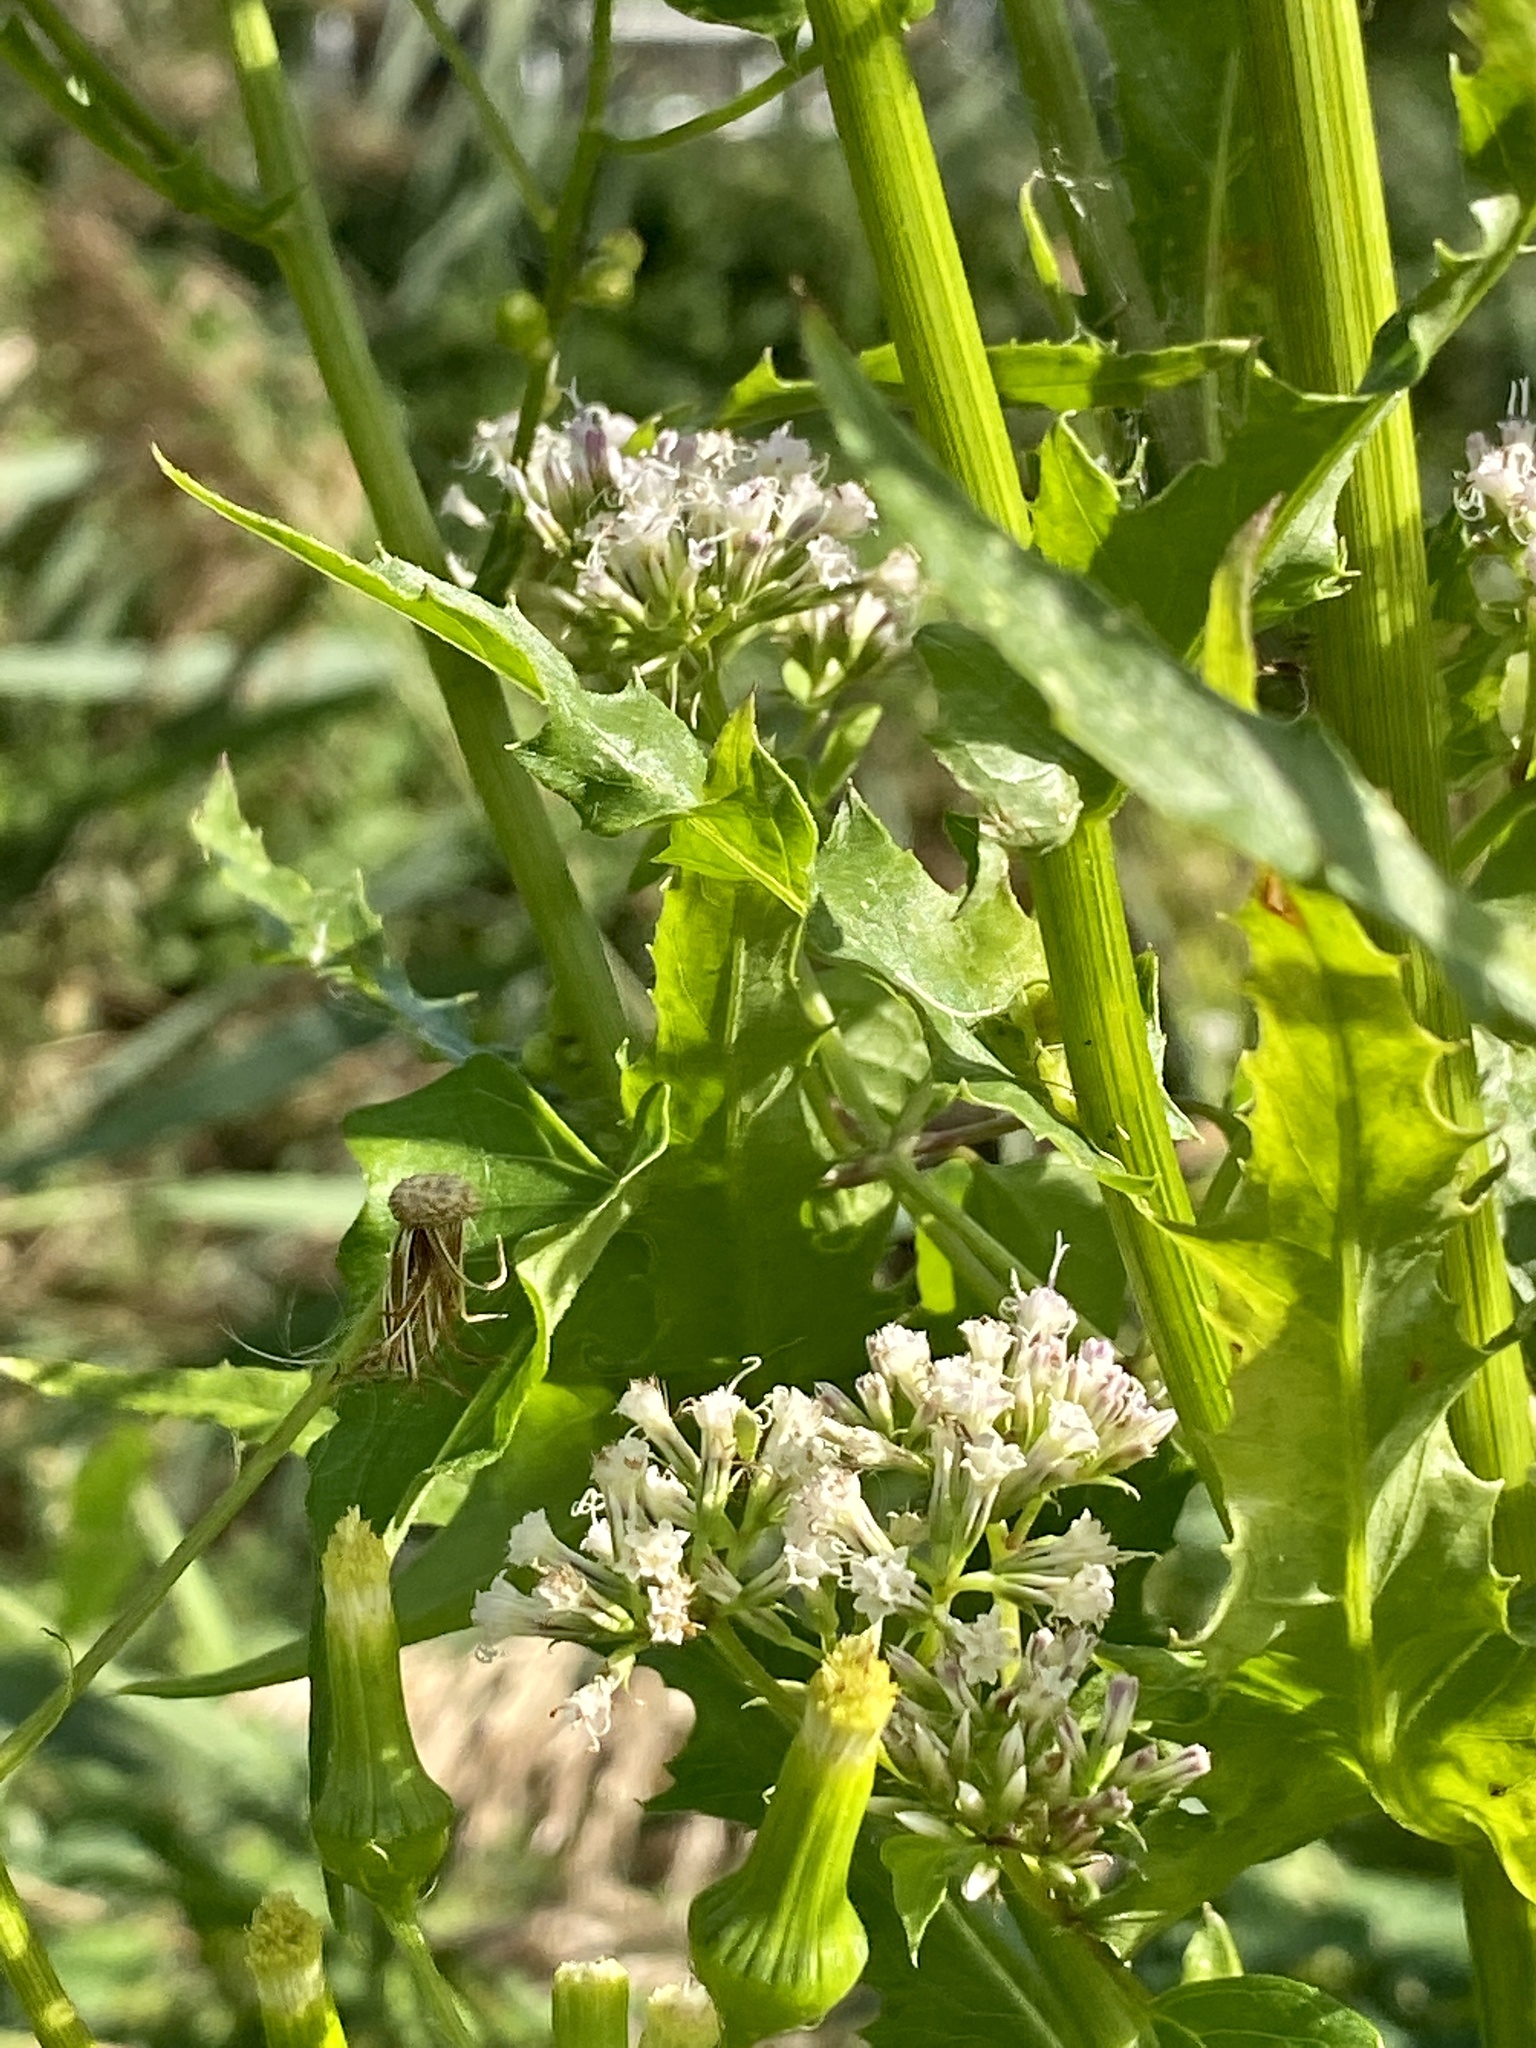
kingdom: Plantae
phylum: Tracheophyta
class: Magnoliopsida
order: Asterales
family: Asteraceae
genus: Mikania
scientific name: Mikania scandens
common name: Climbing hempvine
